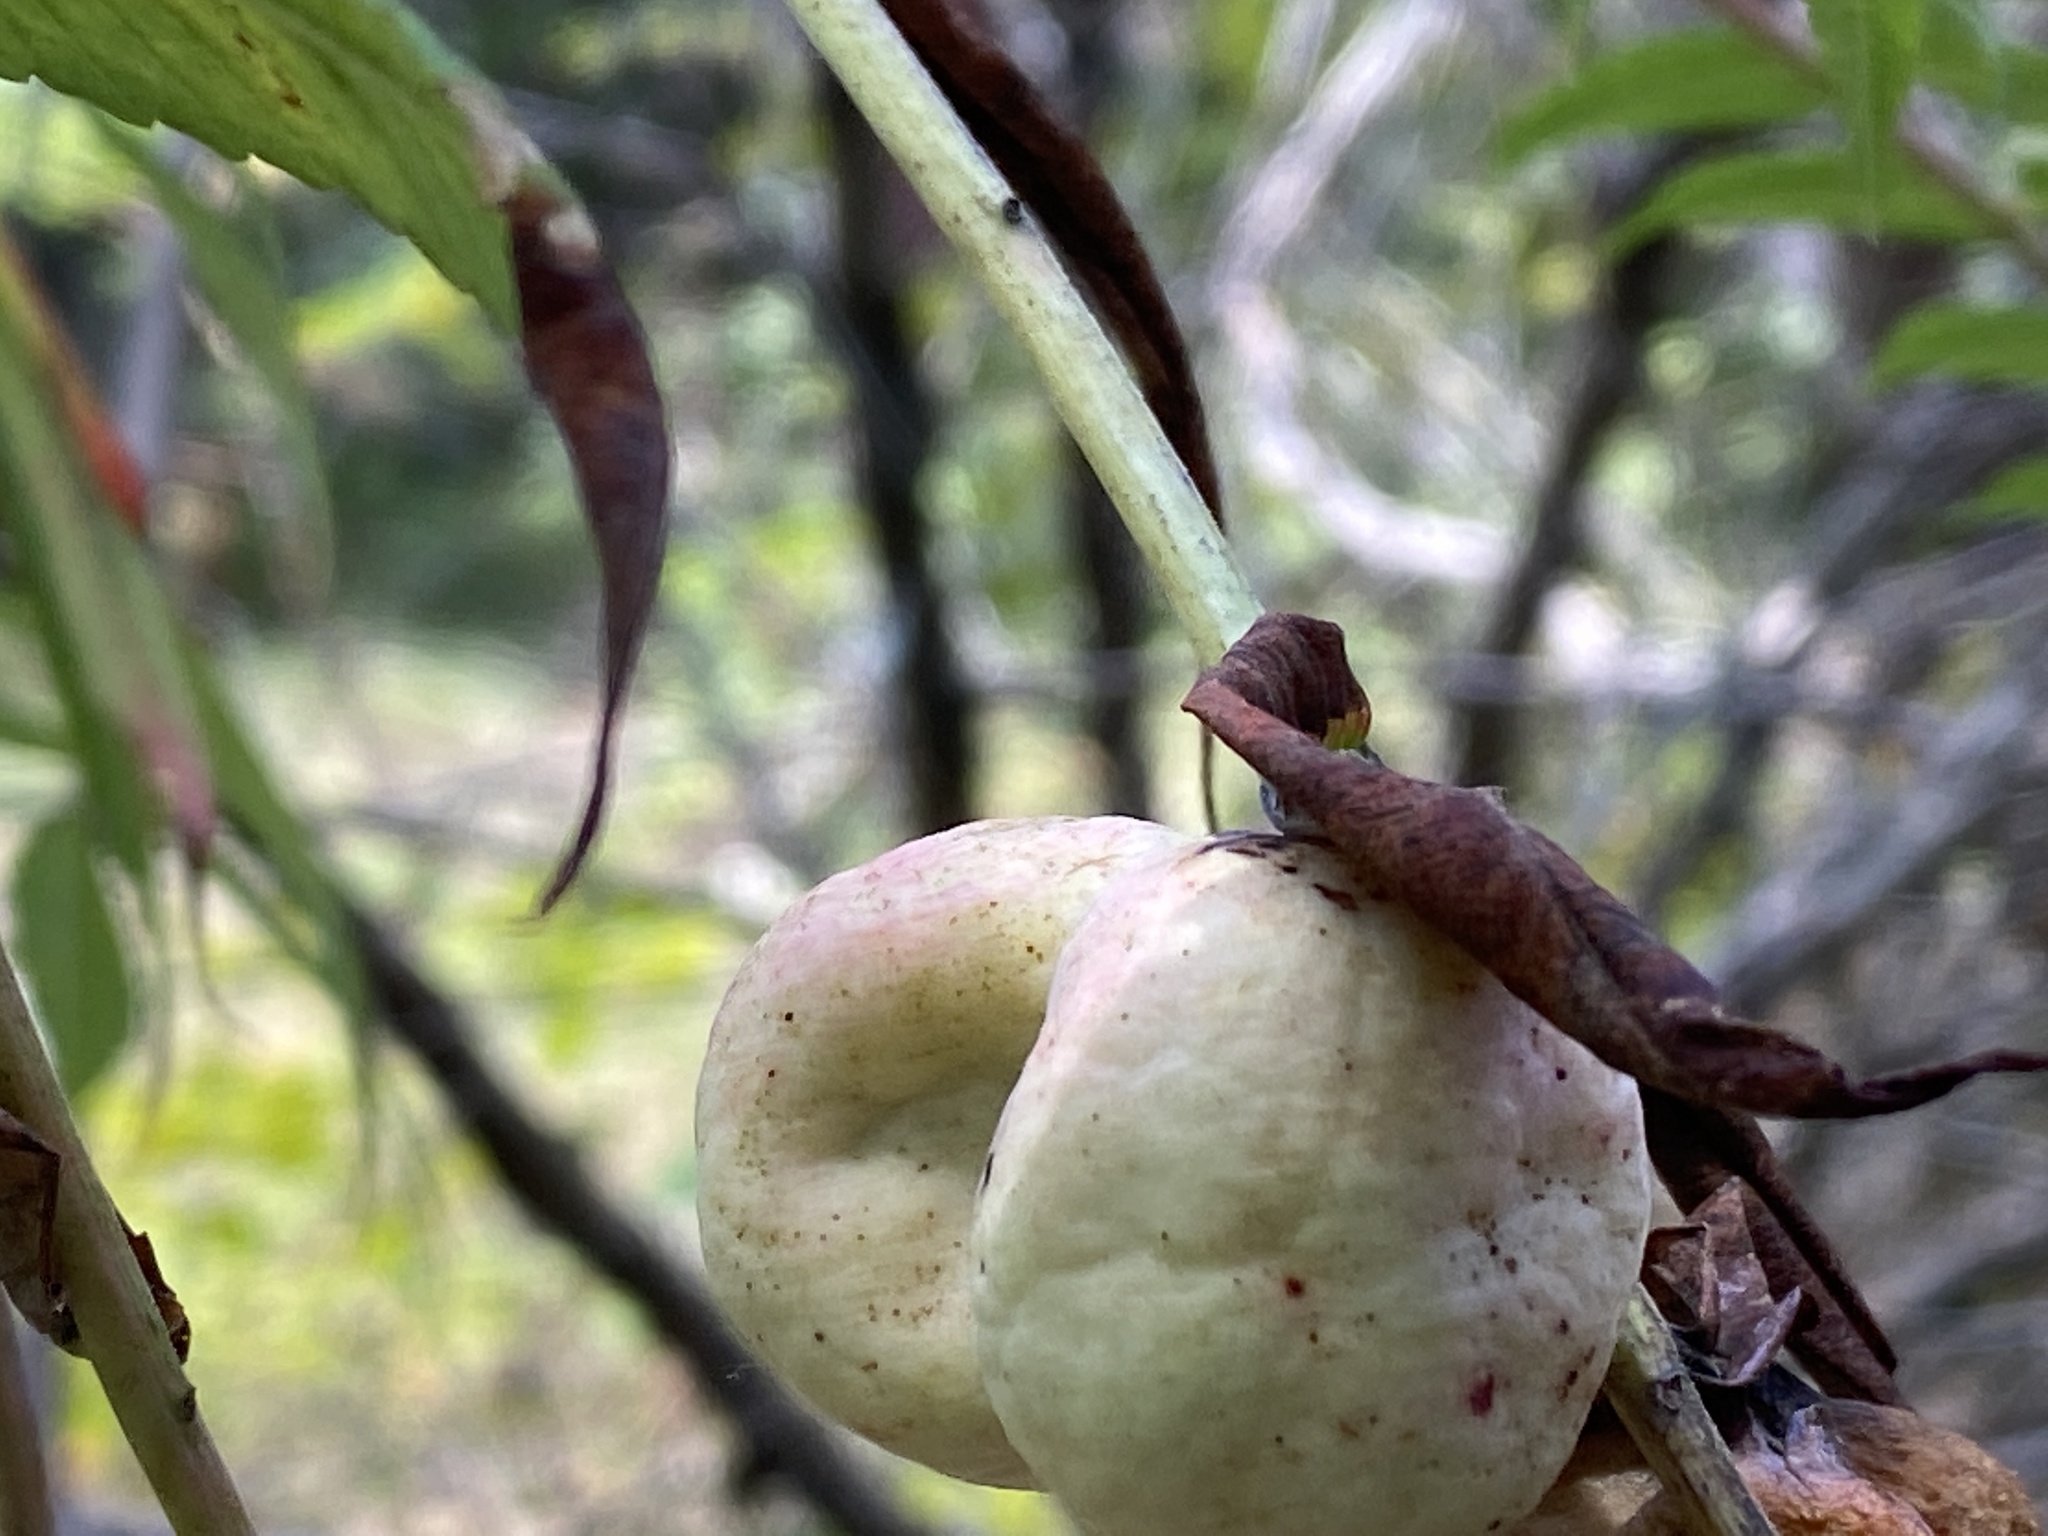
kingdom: Animalia
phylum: Arthropoda
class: Insecta
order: Hemiptera
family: Aphididae
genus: Melaphis
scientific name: Melaphis rhois
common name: Sumac gall aphid
